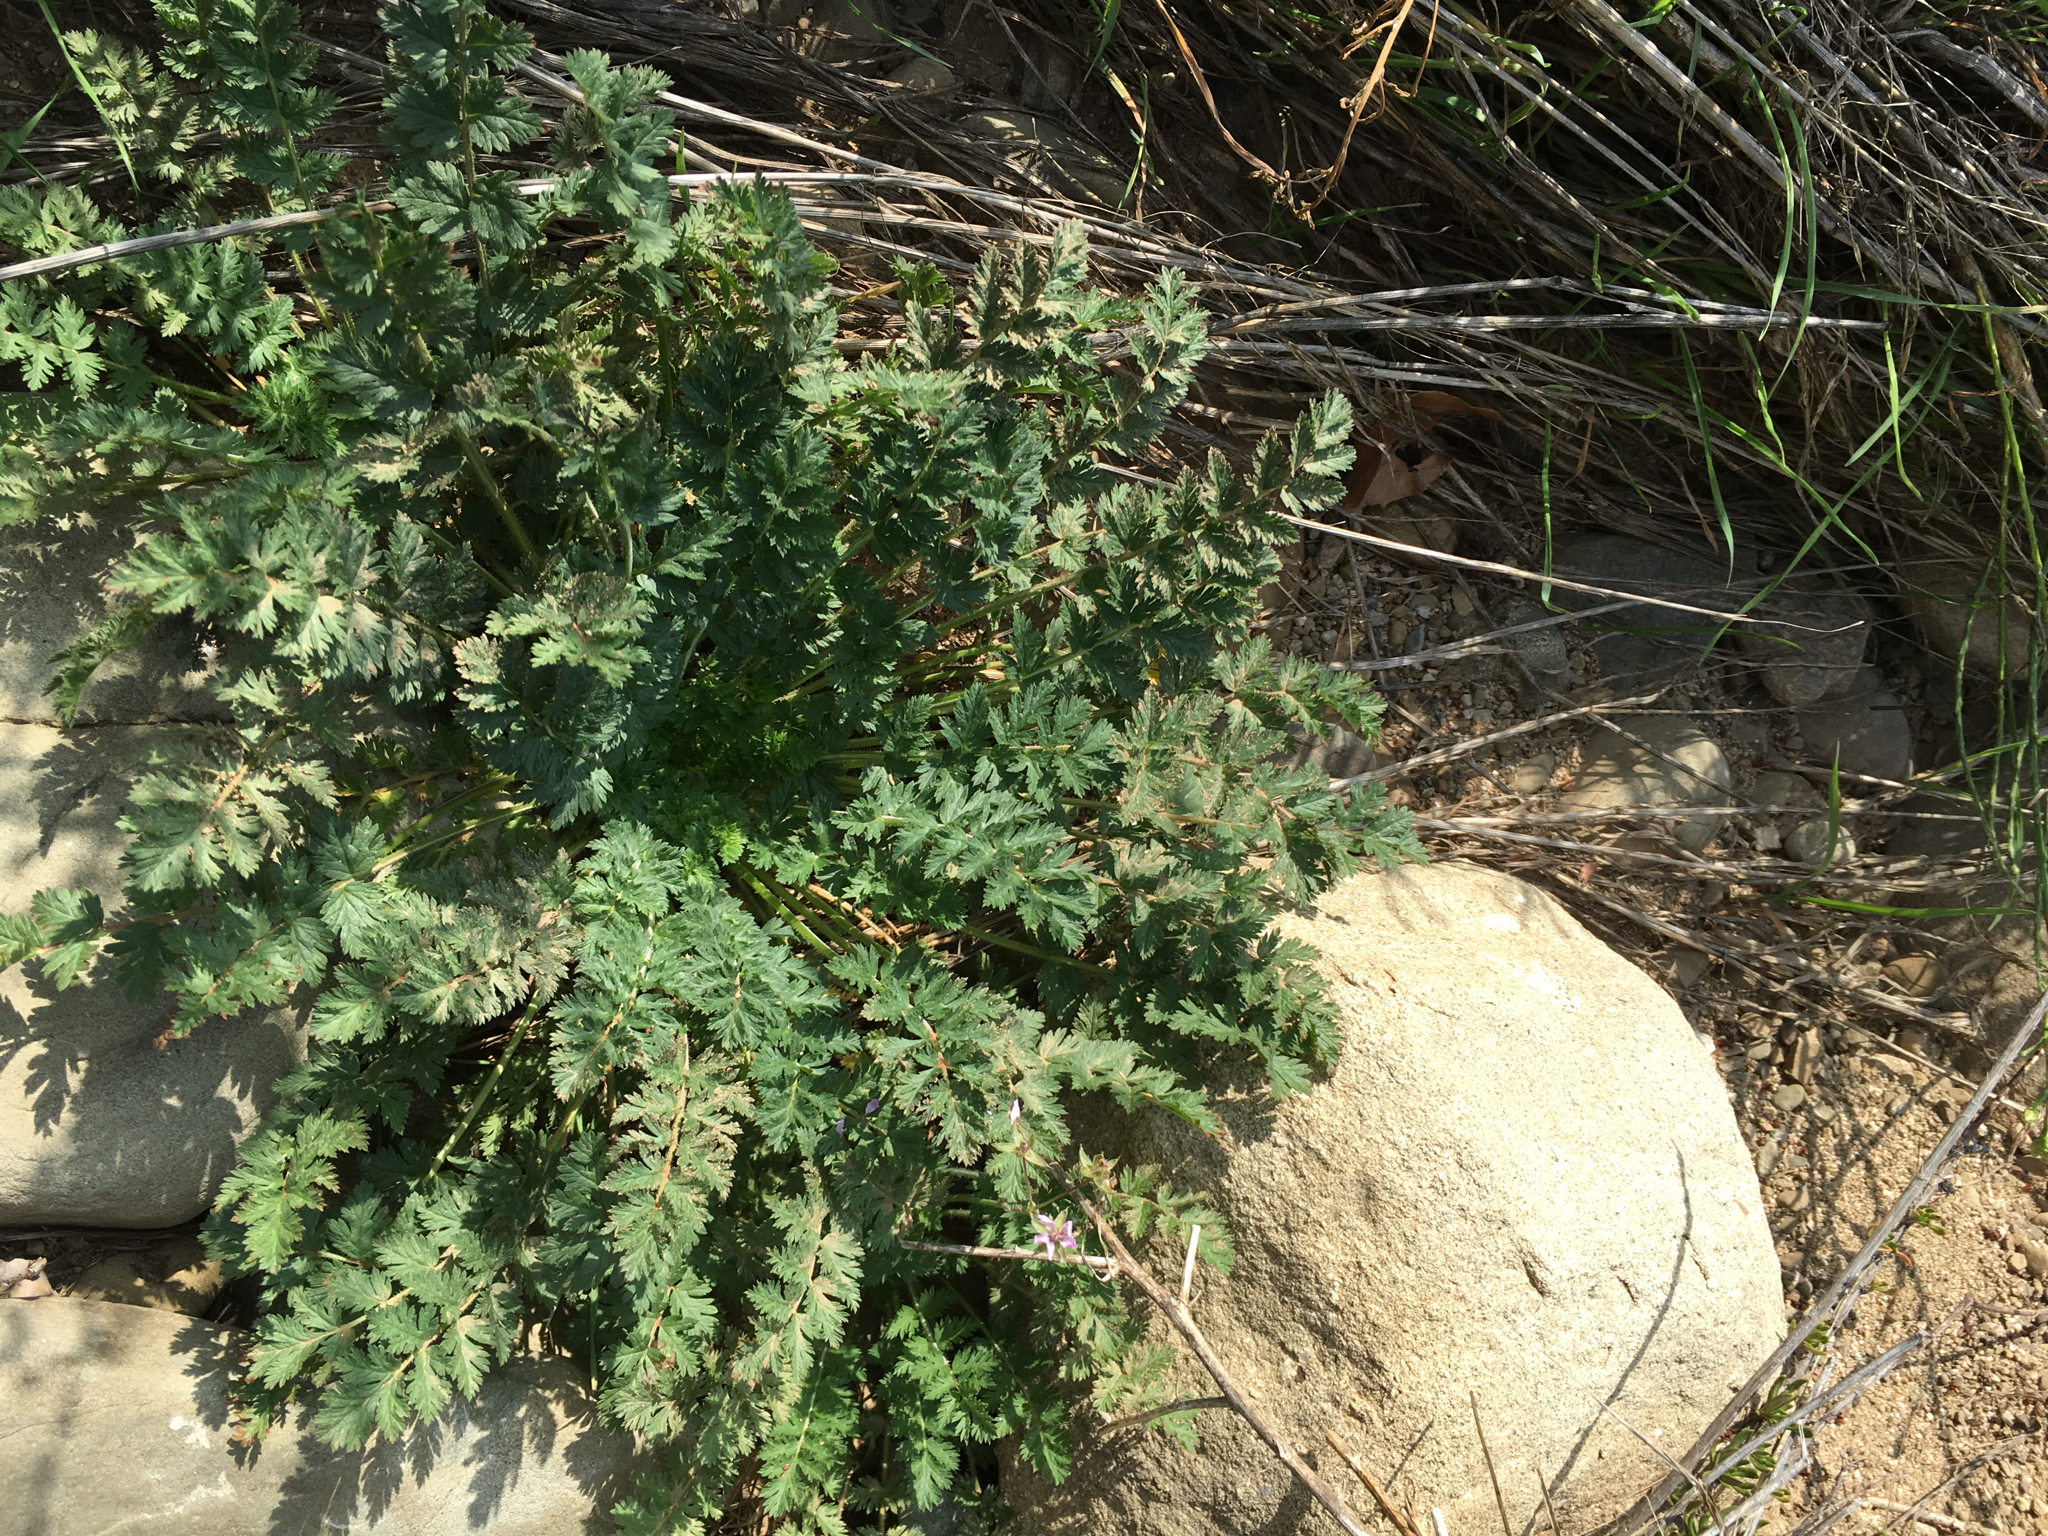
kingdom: Plantae
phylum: Tracheophyta
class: Magnoliopsida
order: Geraniales
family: Geraniaceae
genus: Erodium
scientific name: Erodium cicutarium
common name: Common stork's-bill
